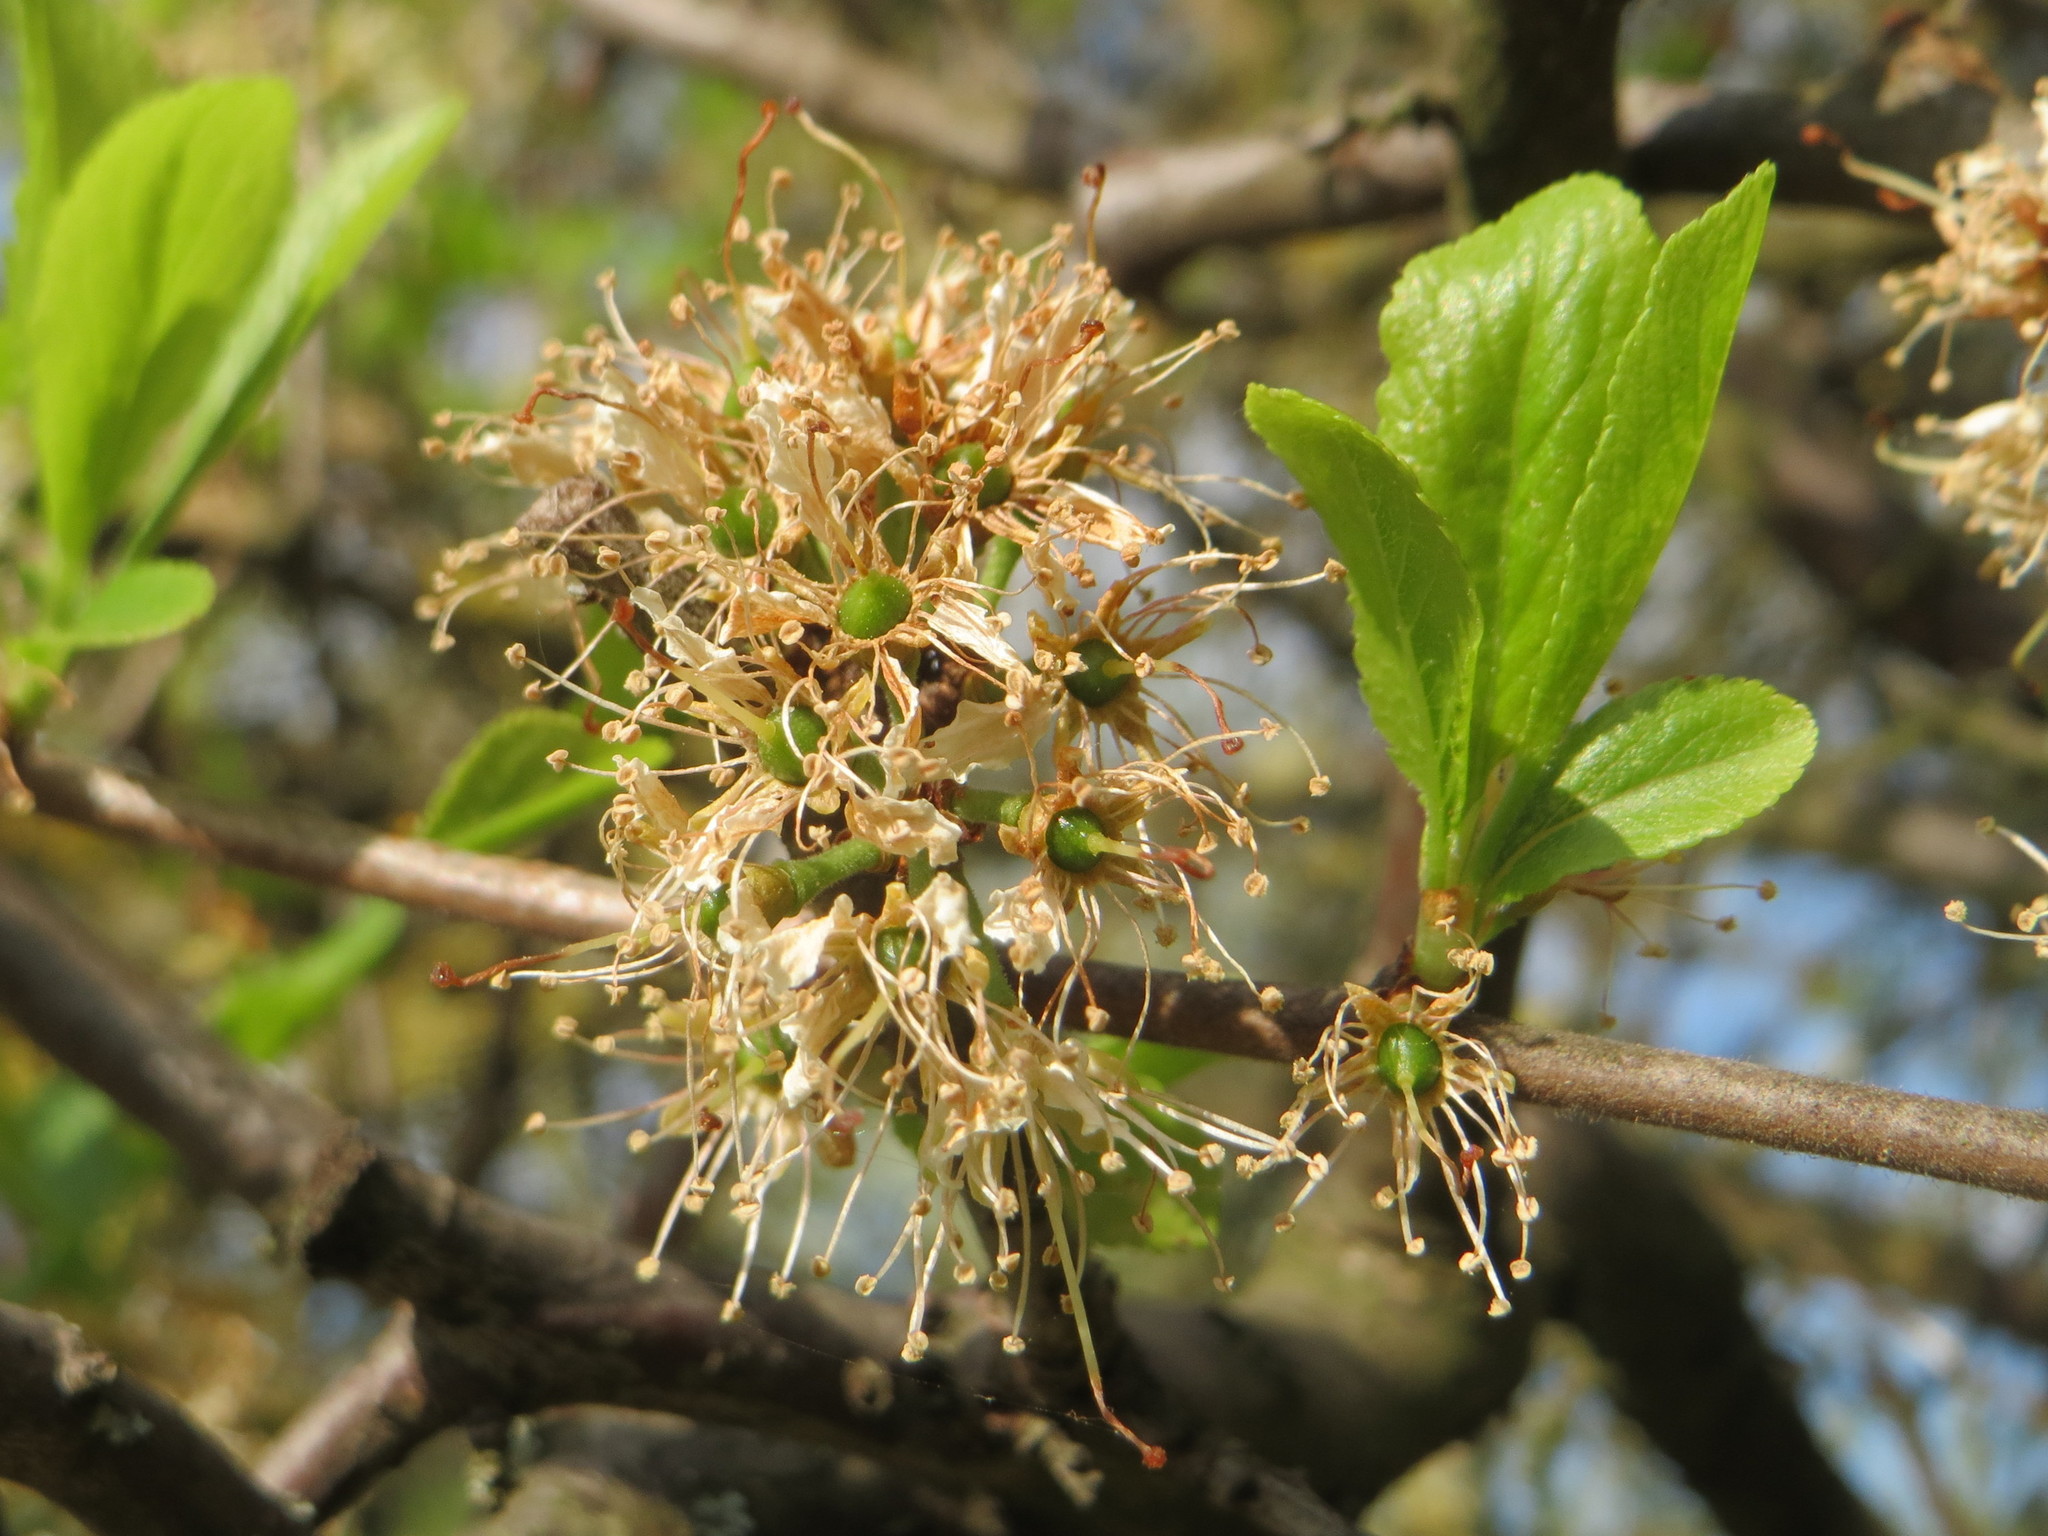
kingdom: Plantae
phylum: Tracheophyta
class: Magnoliopsida
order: Rosales
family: Rosaceae
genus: Prunus
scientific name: Prunus spinosa
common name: Blackthorn
